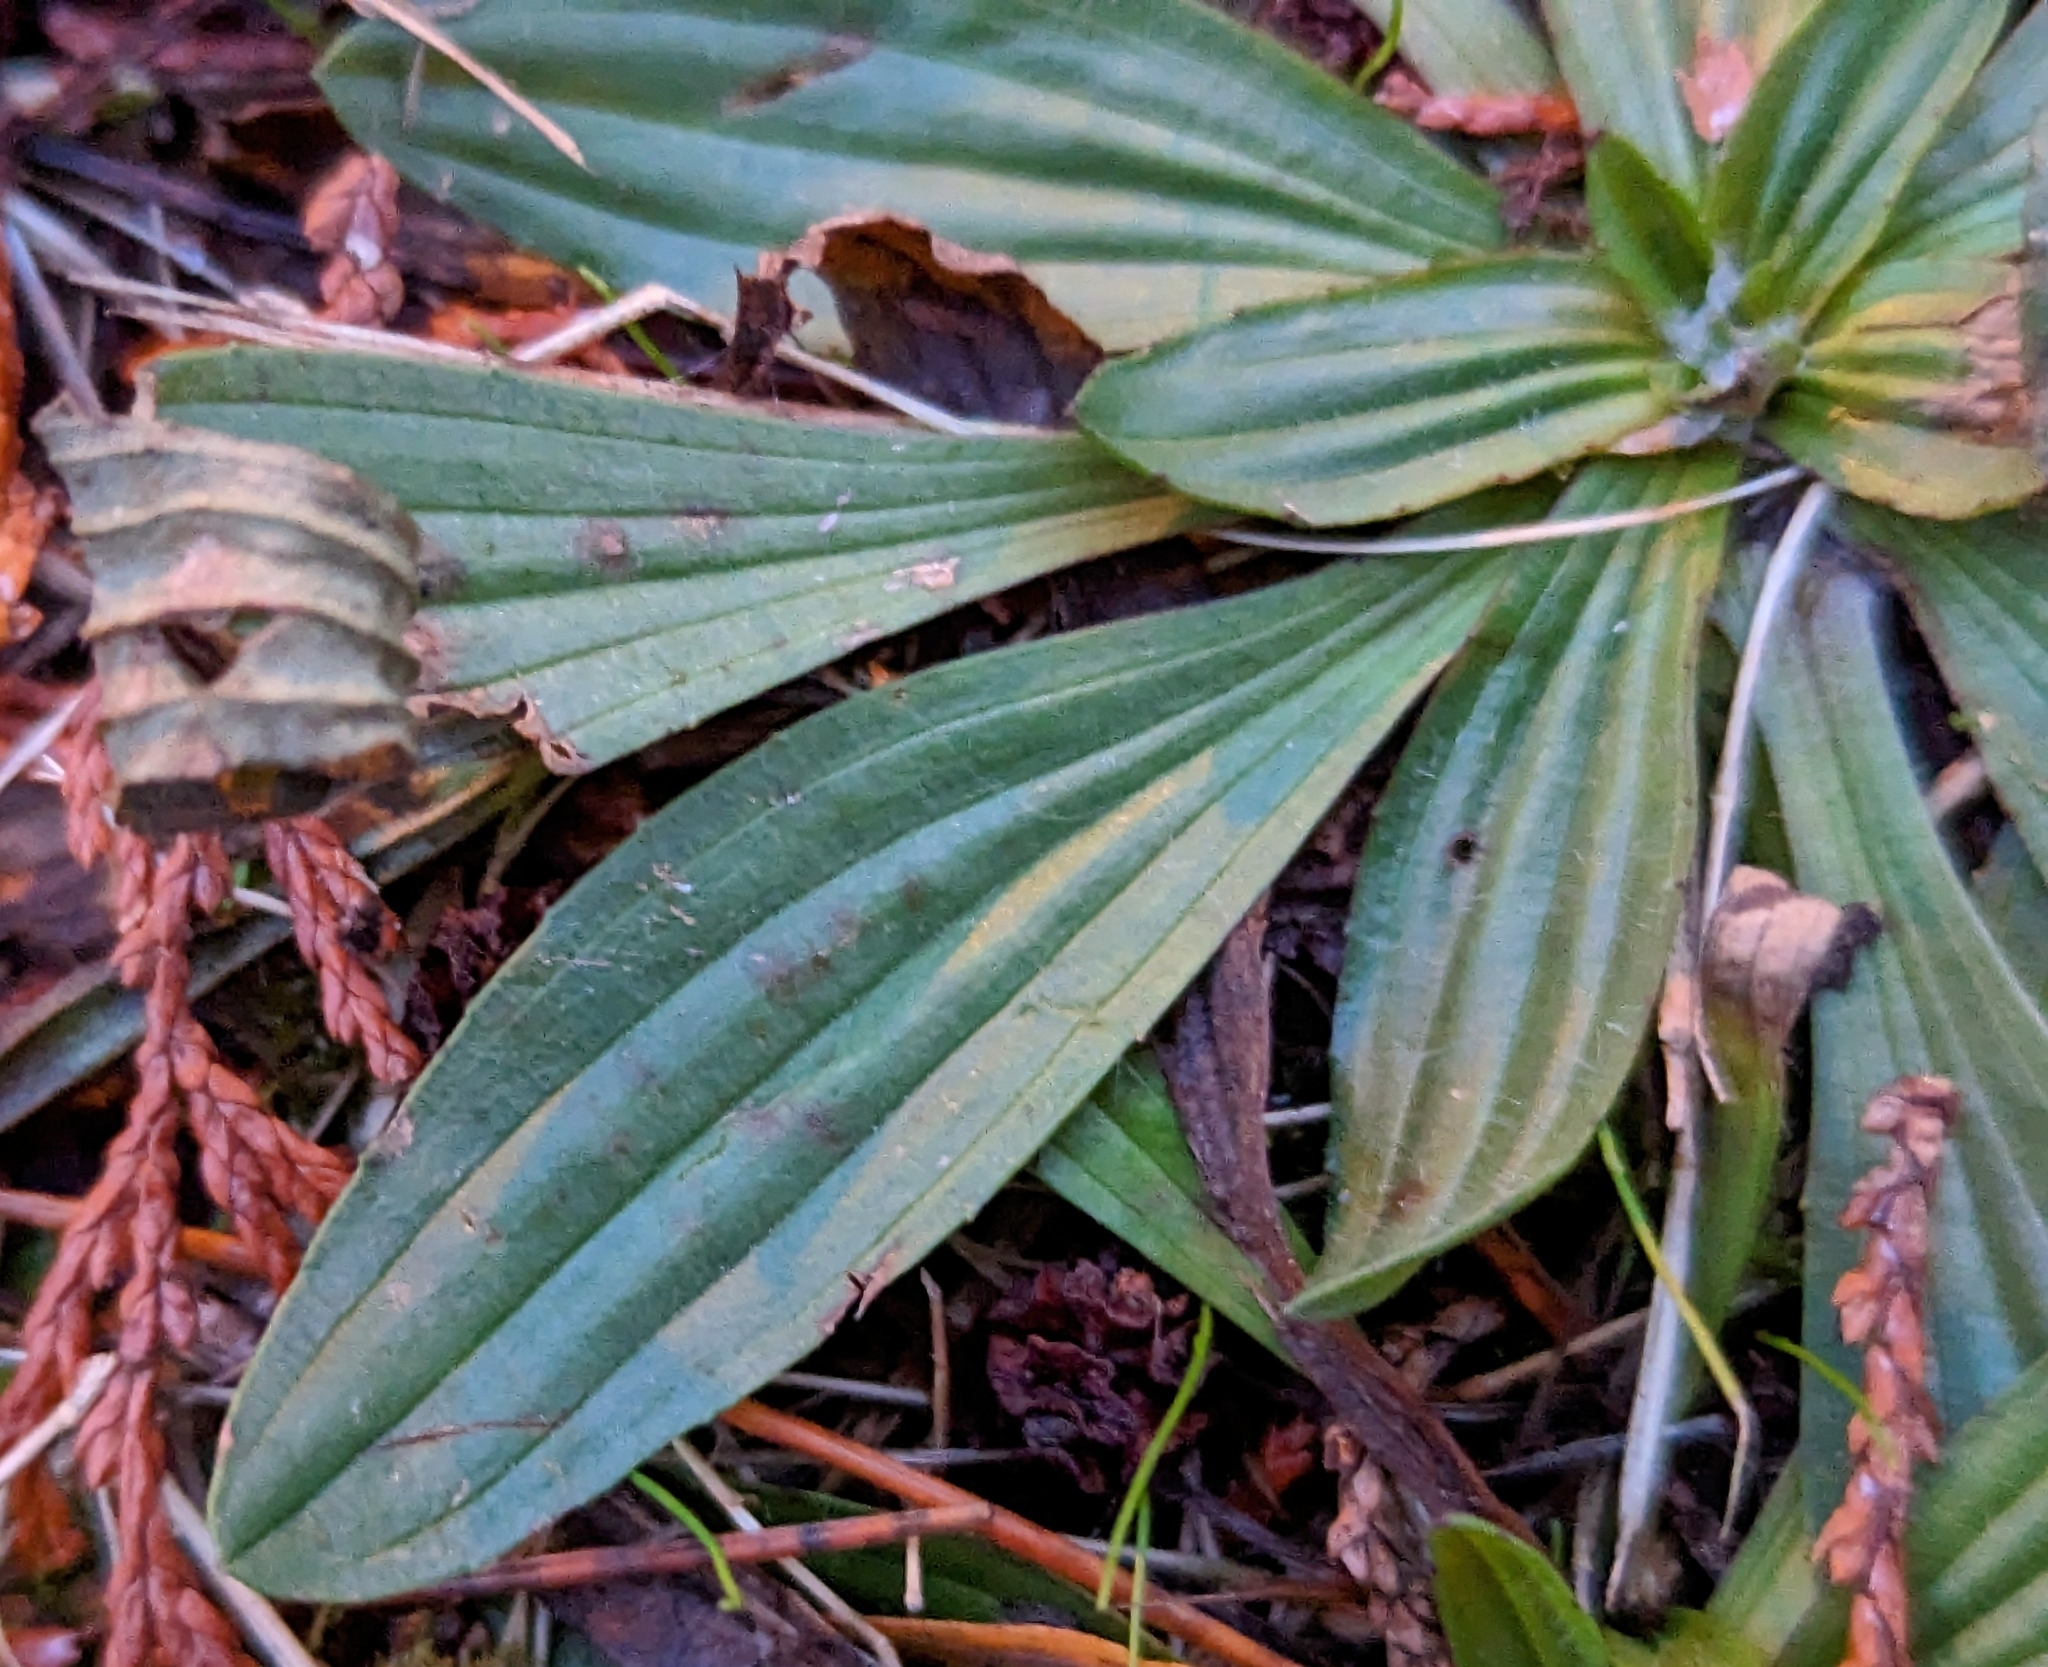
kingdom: Plantae
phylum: Tracheophyta
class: Magnoliopsida
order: Lamiales
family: Plantaginaceae
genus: Plantago
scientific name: Plantago lanceolata
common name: Ribwort plantain
